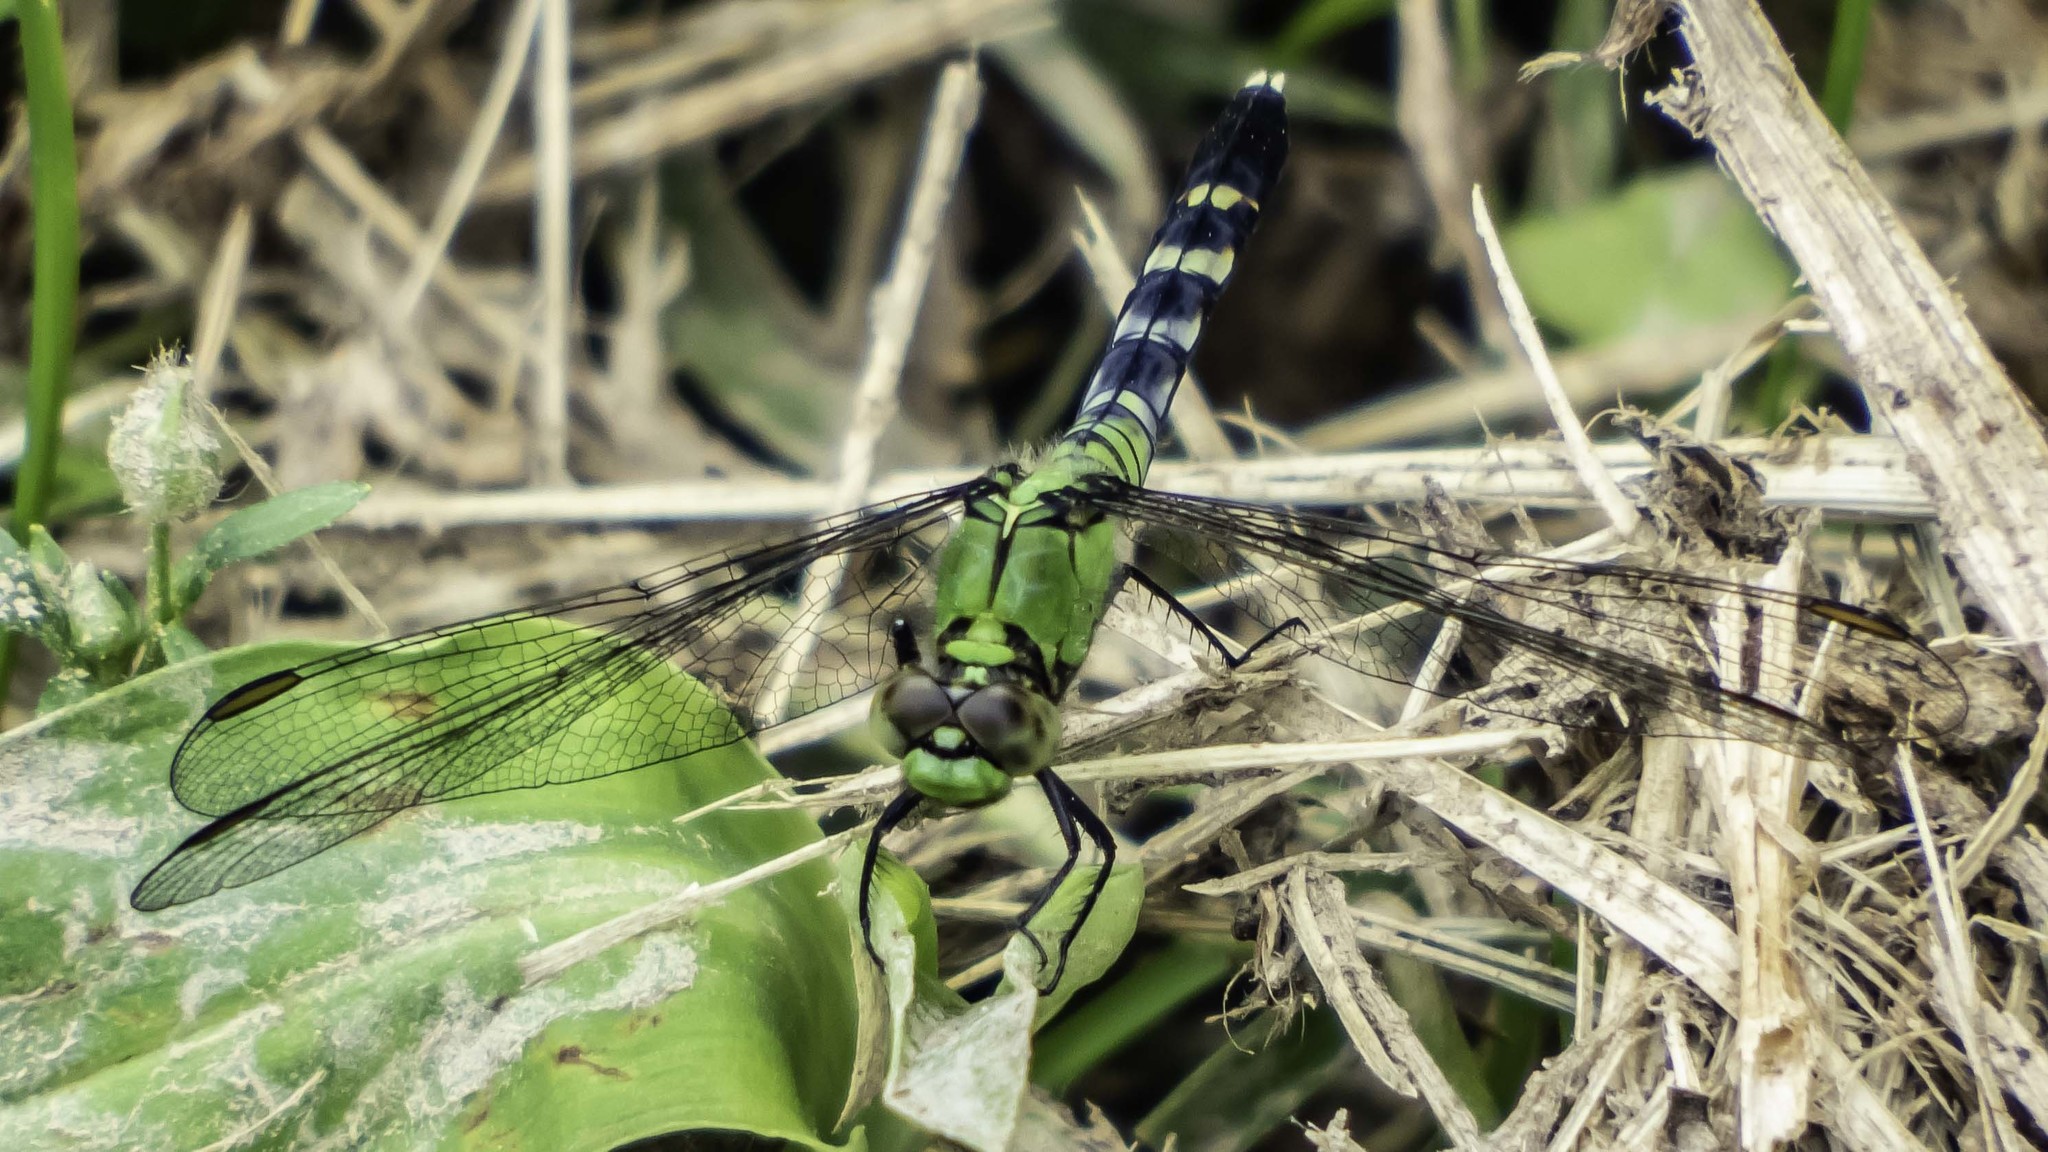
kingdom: Animalia
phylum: Arthropoda
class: Insecta
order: Odonata
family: Libellulidae
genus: Erythemis
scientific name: Erythemis simplicicollis
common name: Eastern pondhawk
